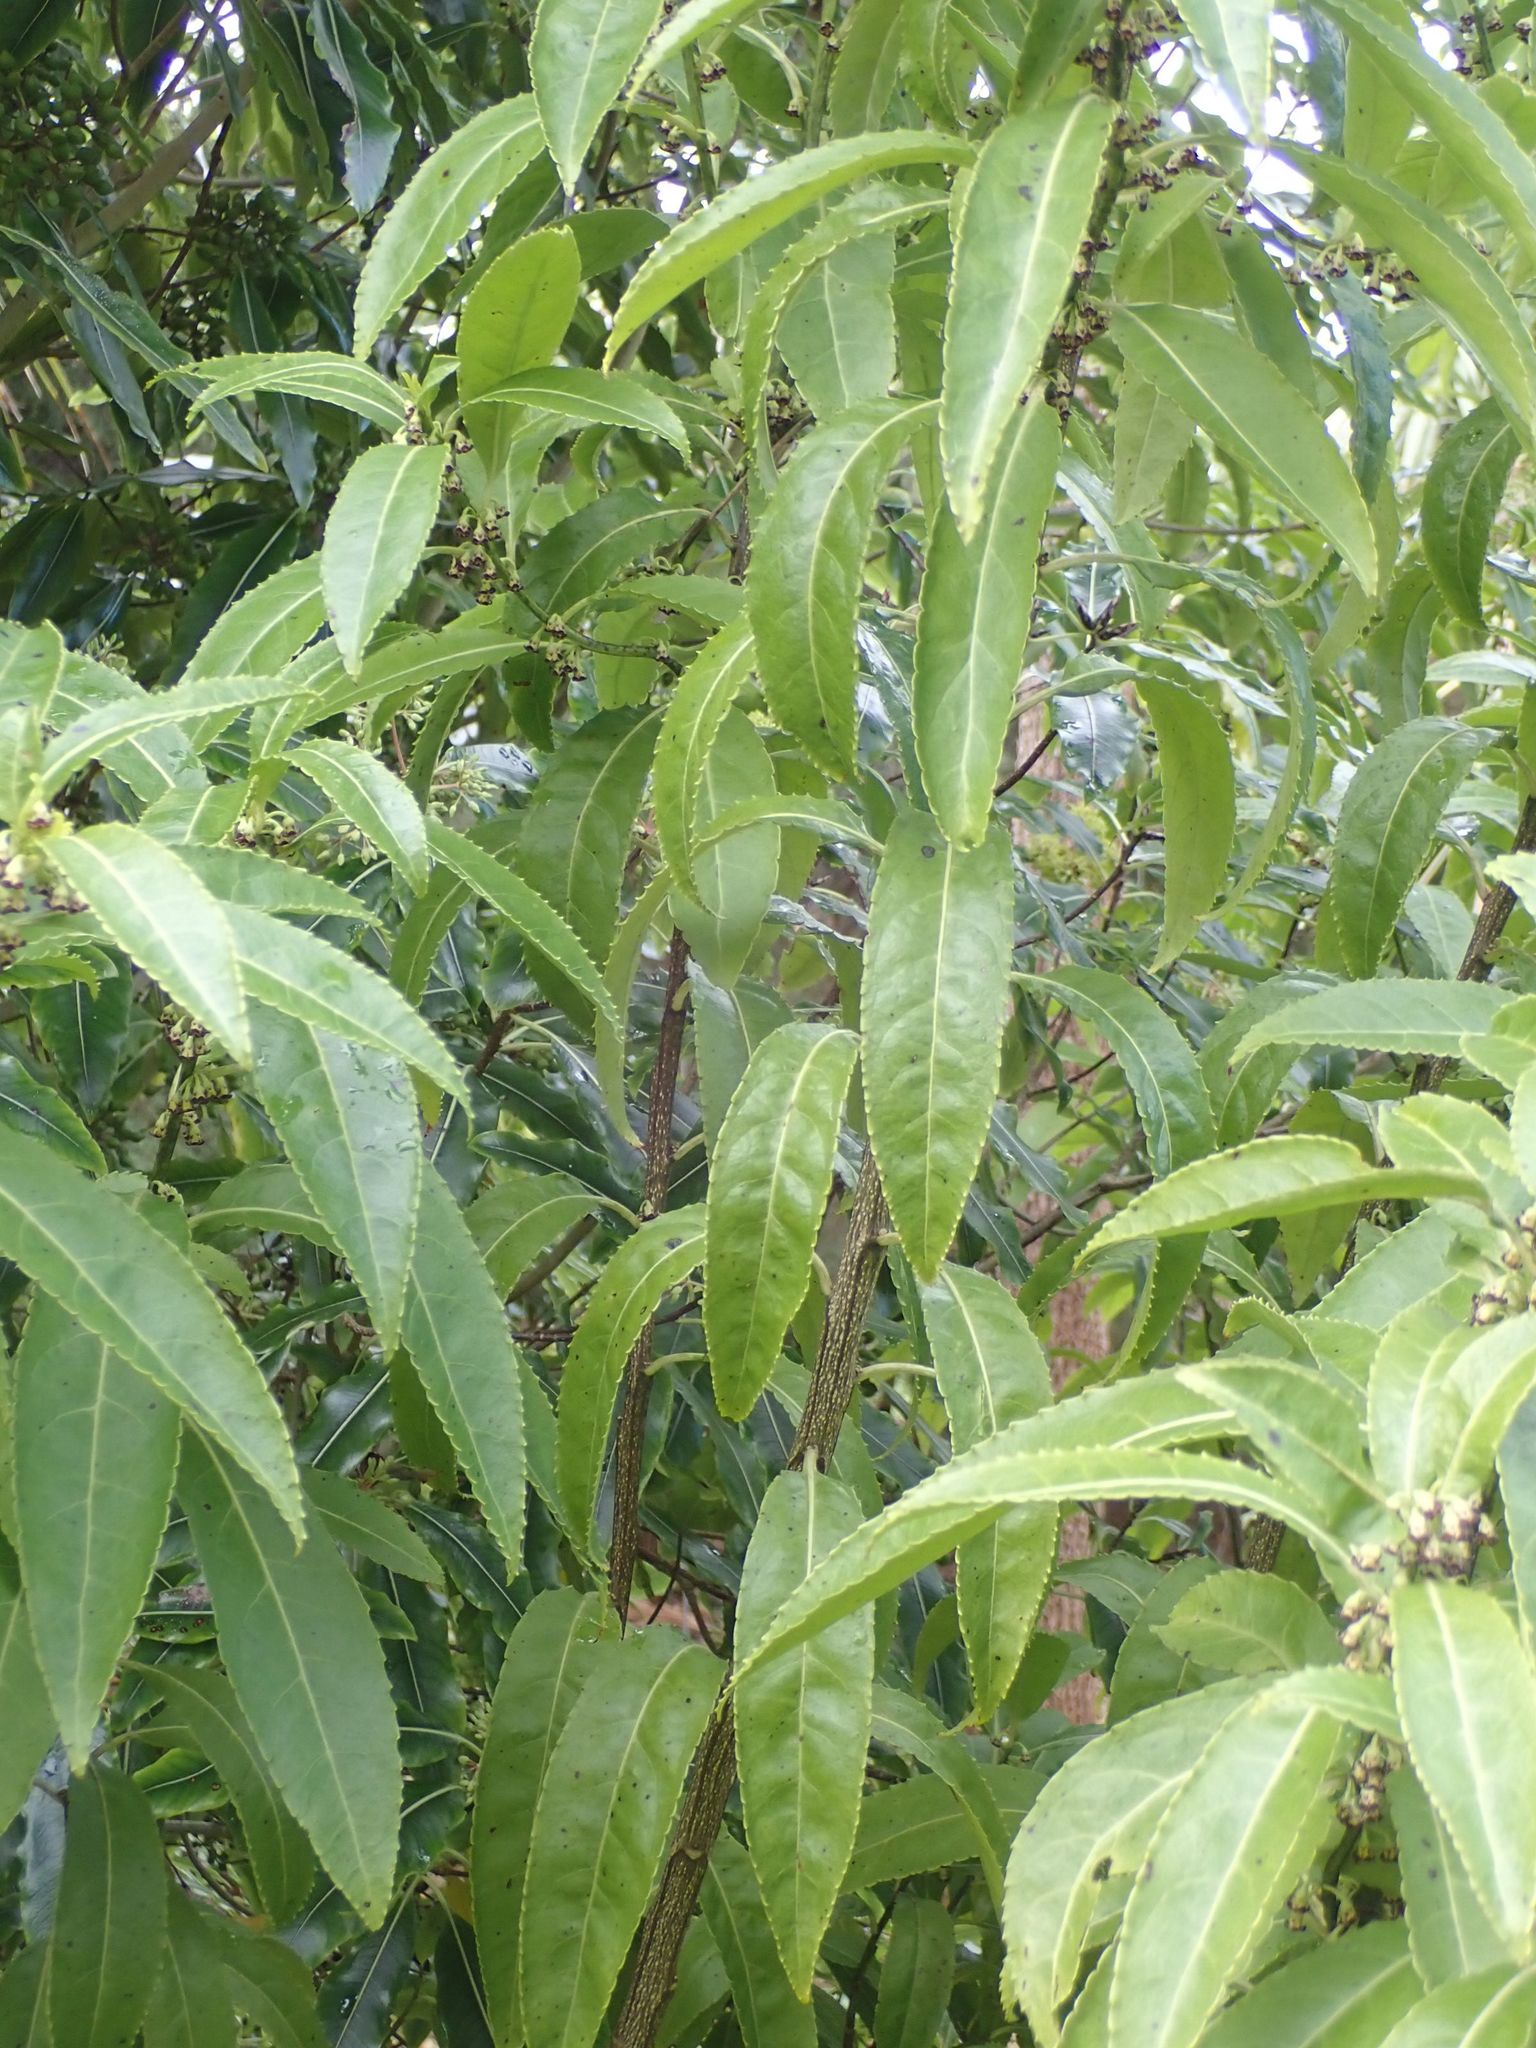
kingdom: Plantae
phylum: Tracheophyta
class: Magnoliopsida
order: Malpighiales
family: Violaceae
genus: Melicytus
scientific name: Melicytus lanceolatus
